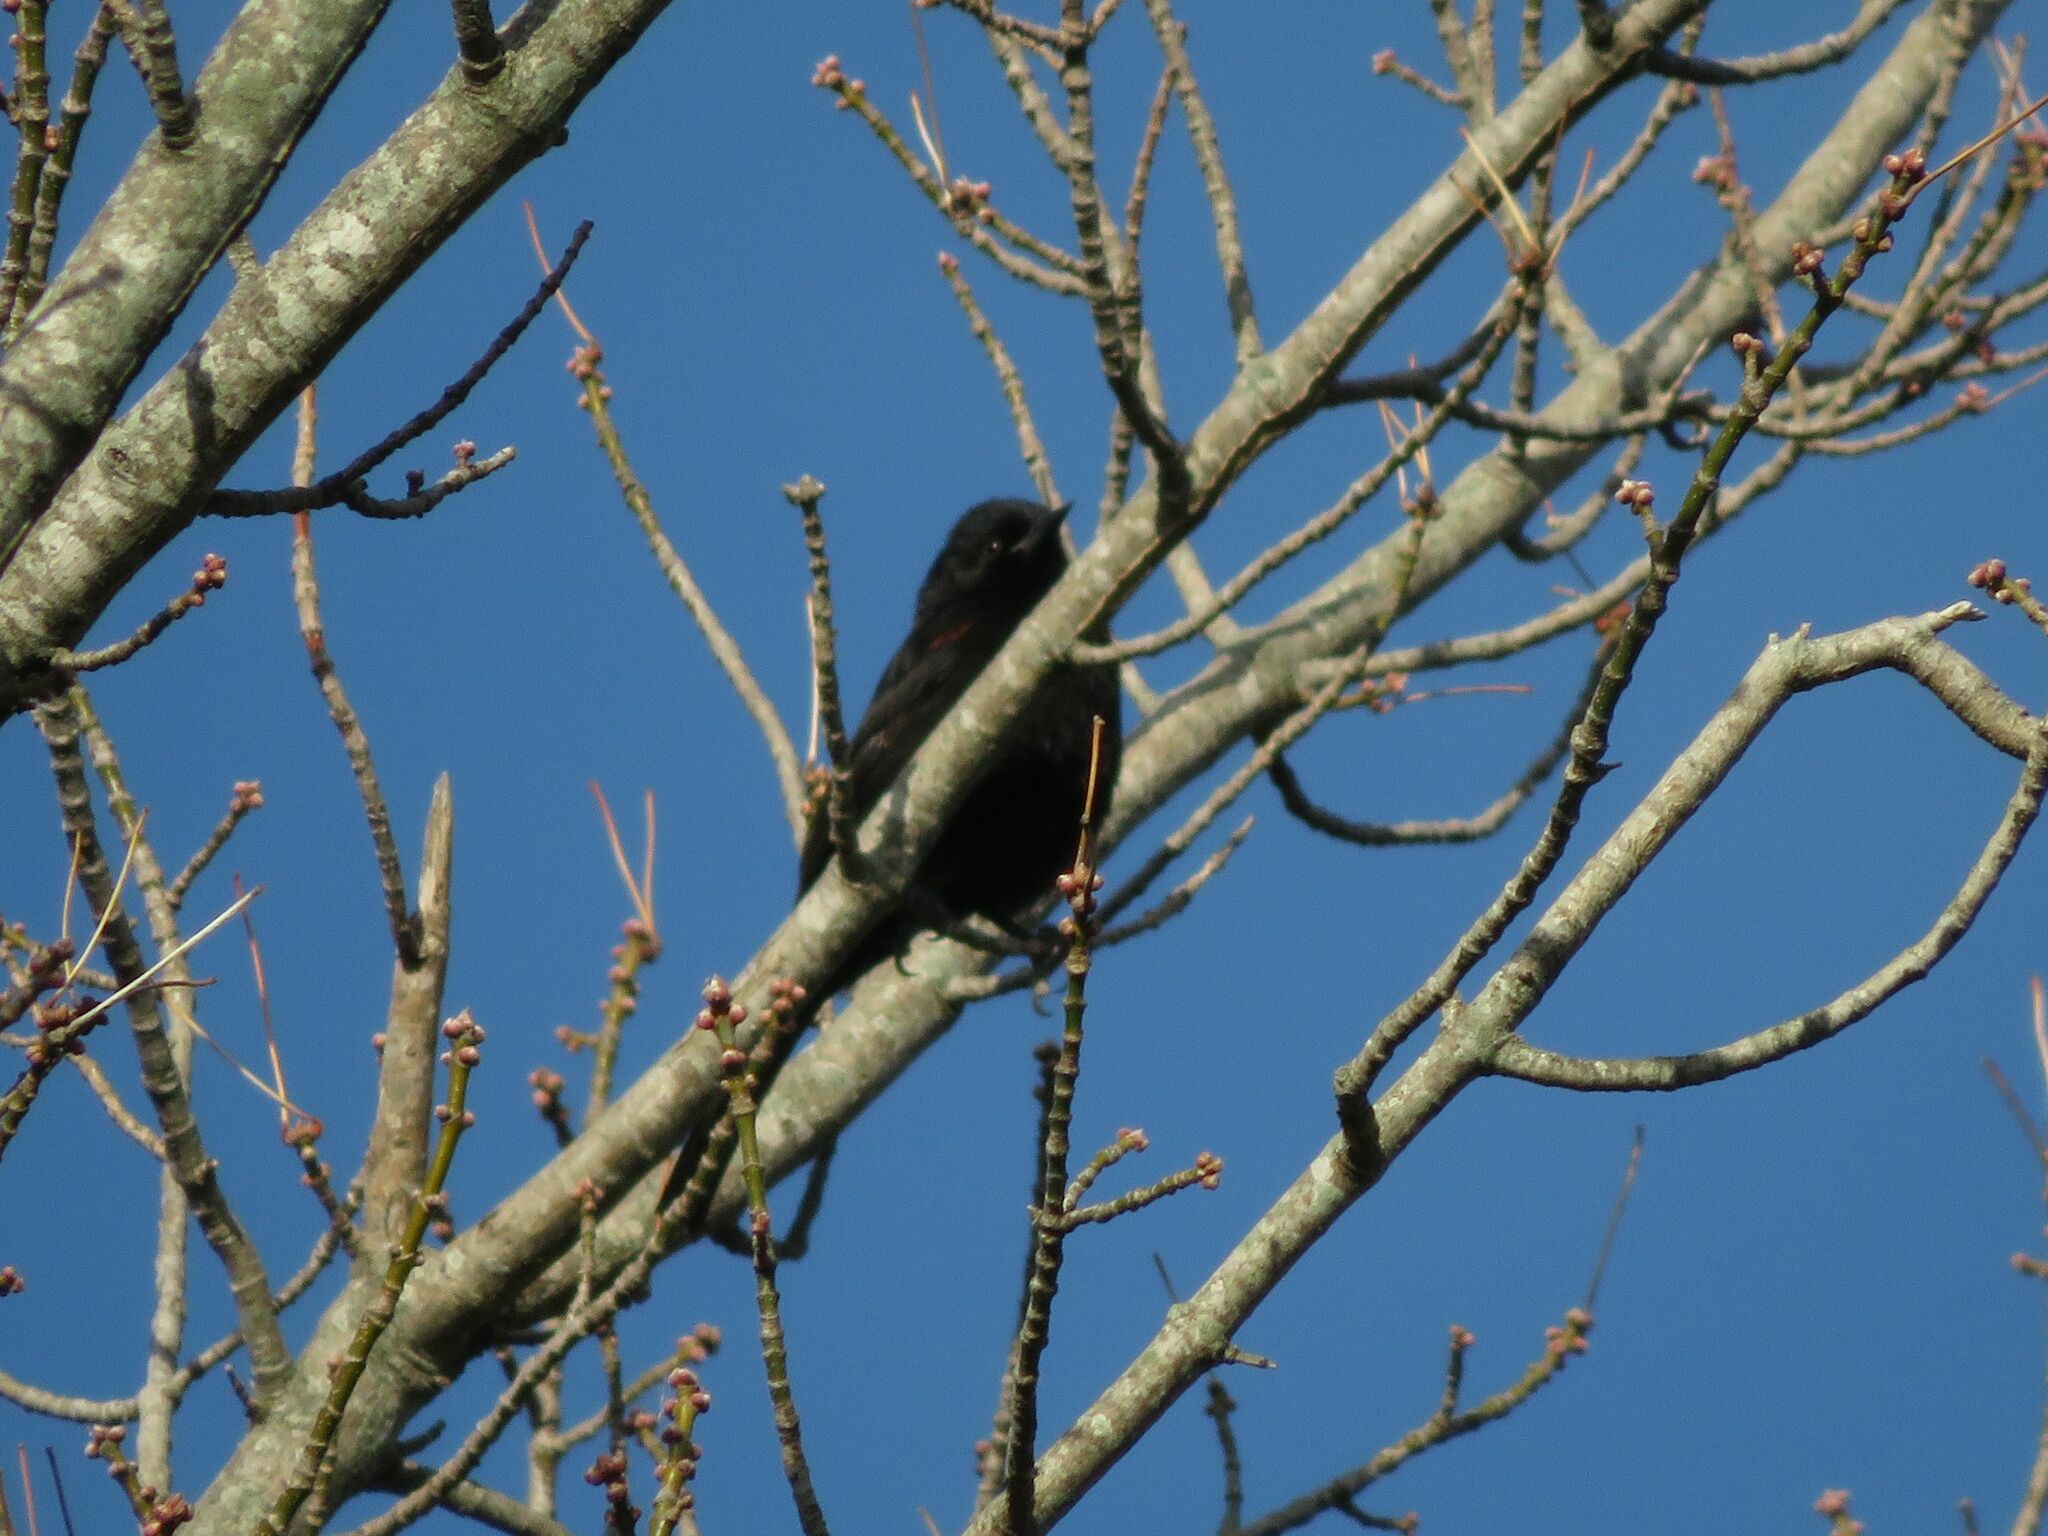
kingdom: Animalia
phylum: Chordata
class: Aves
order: Passeriformes
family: Icteridae
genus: Icterus
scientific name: Icterus cayanensis
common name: Epaulet oriole
